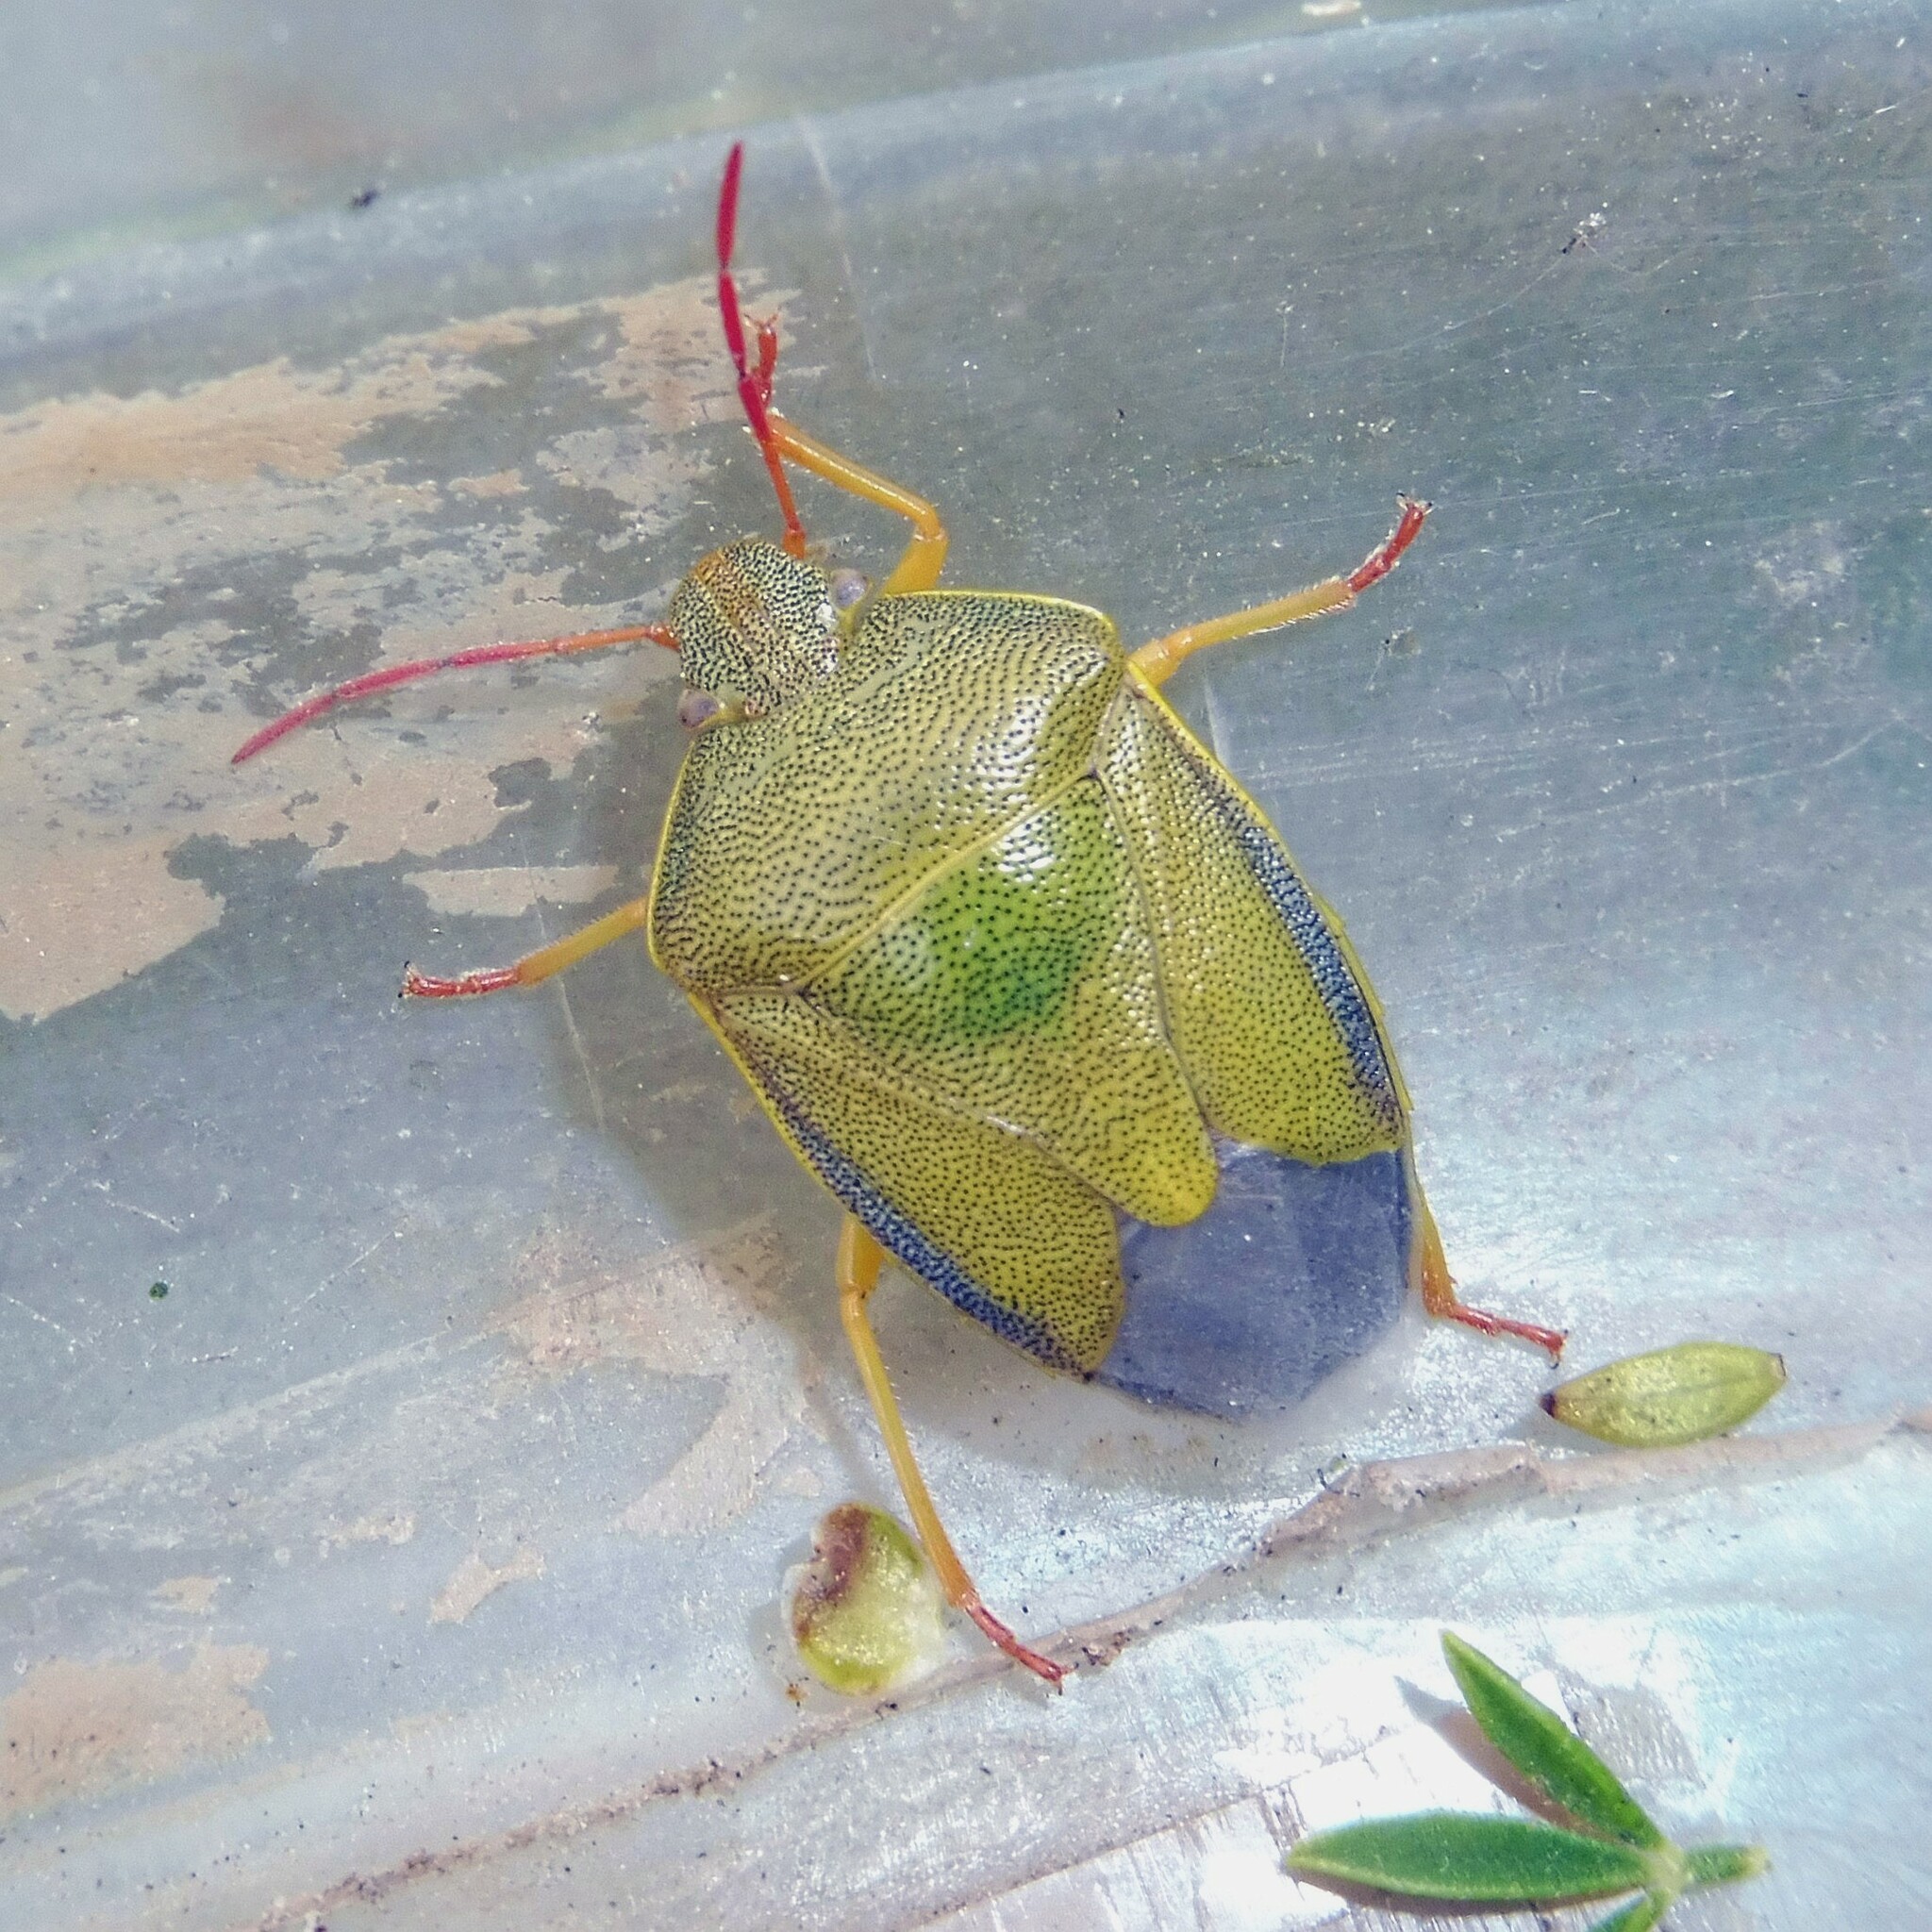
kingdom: Animalia
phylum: Arthropoda
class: Insecta
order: Hemiptera
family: Pentatomidae
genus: Piezodorus
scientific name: Piezodorus lituratus
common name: Stink bug
